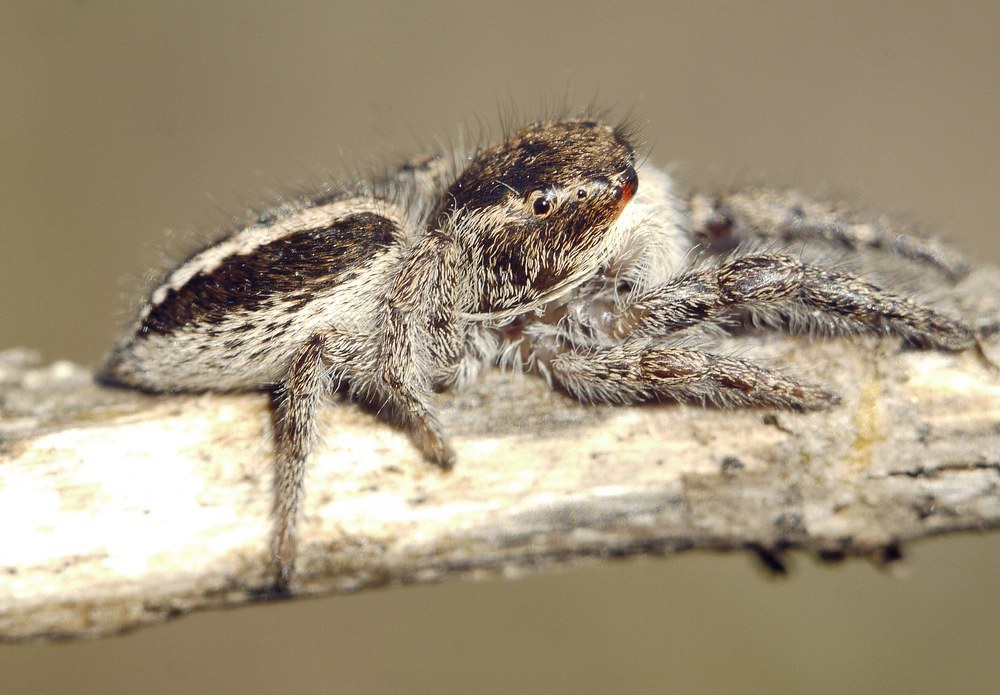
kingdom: Animalia
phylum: Arthropoda
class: Arachnida
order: Araneae
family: Salticidae
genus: Pellenes
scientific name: Pellenes seriatus
